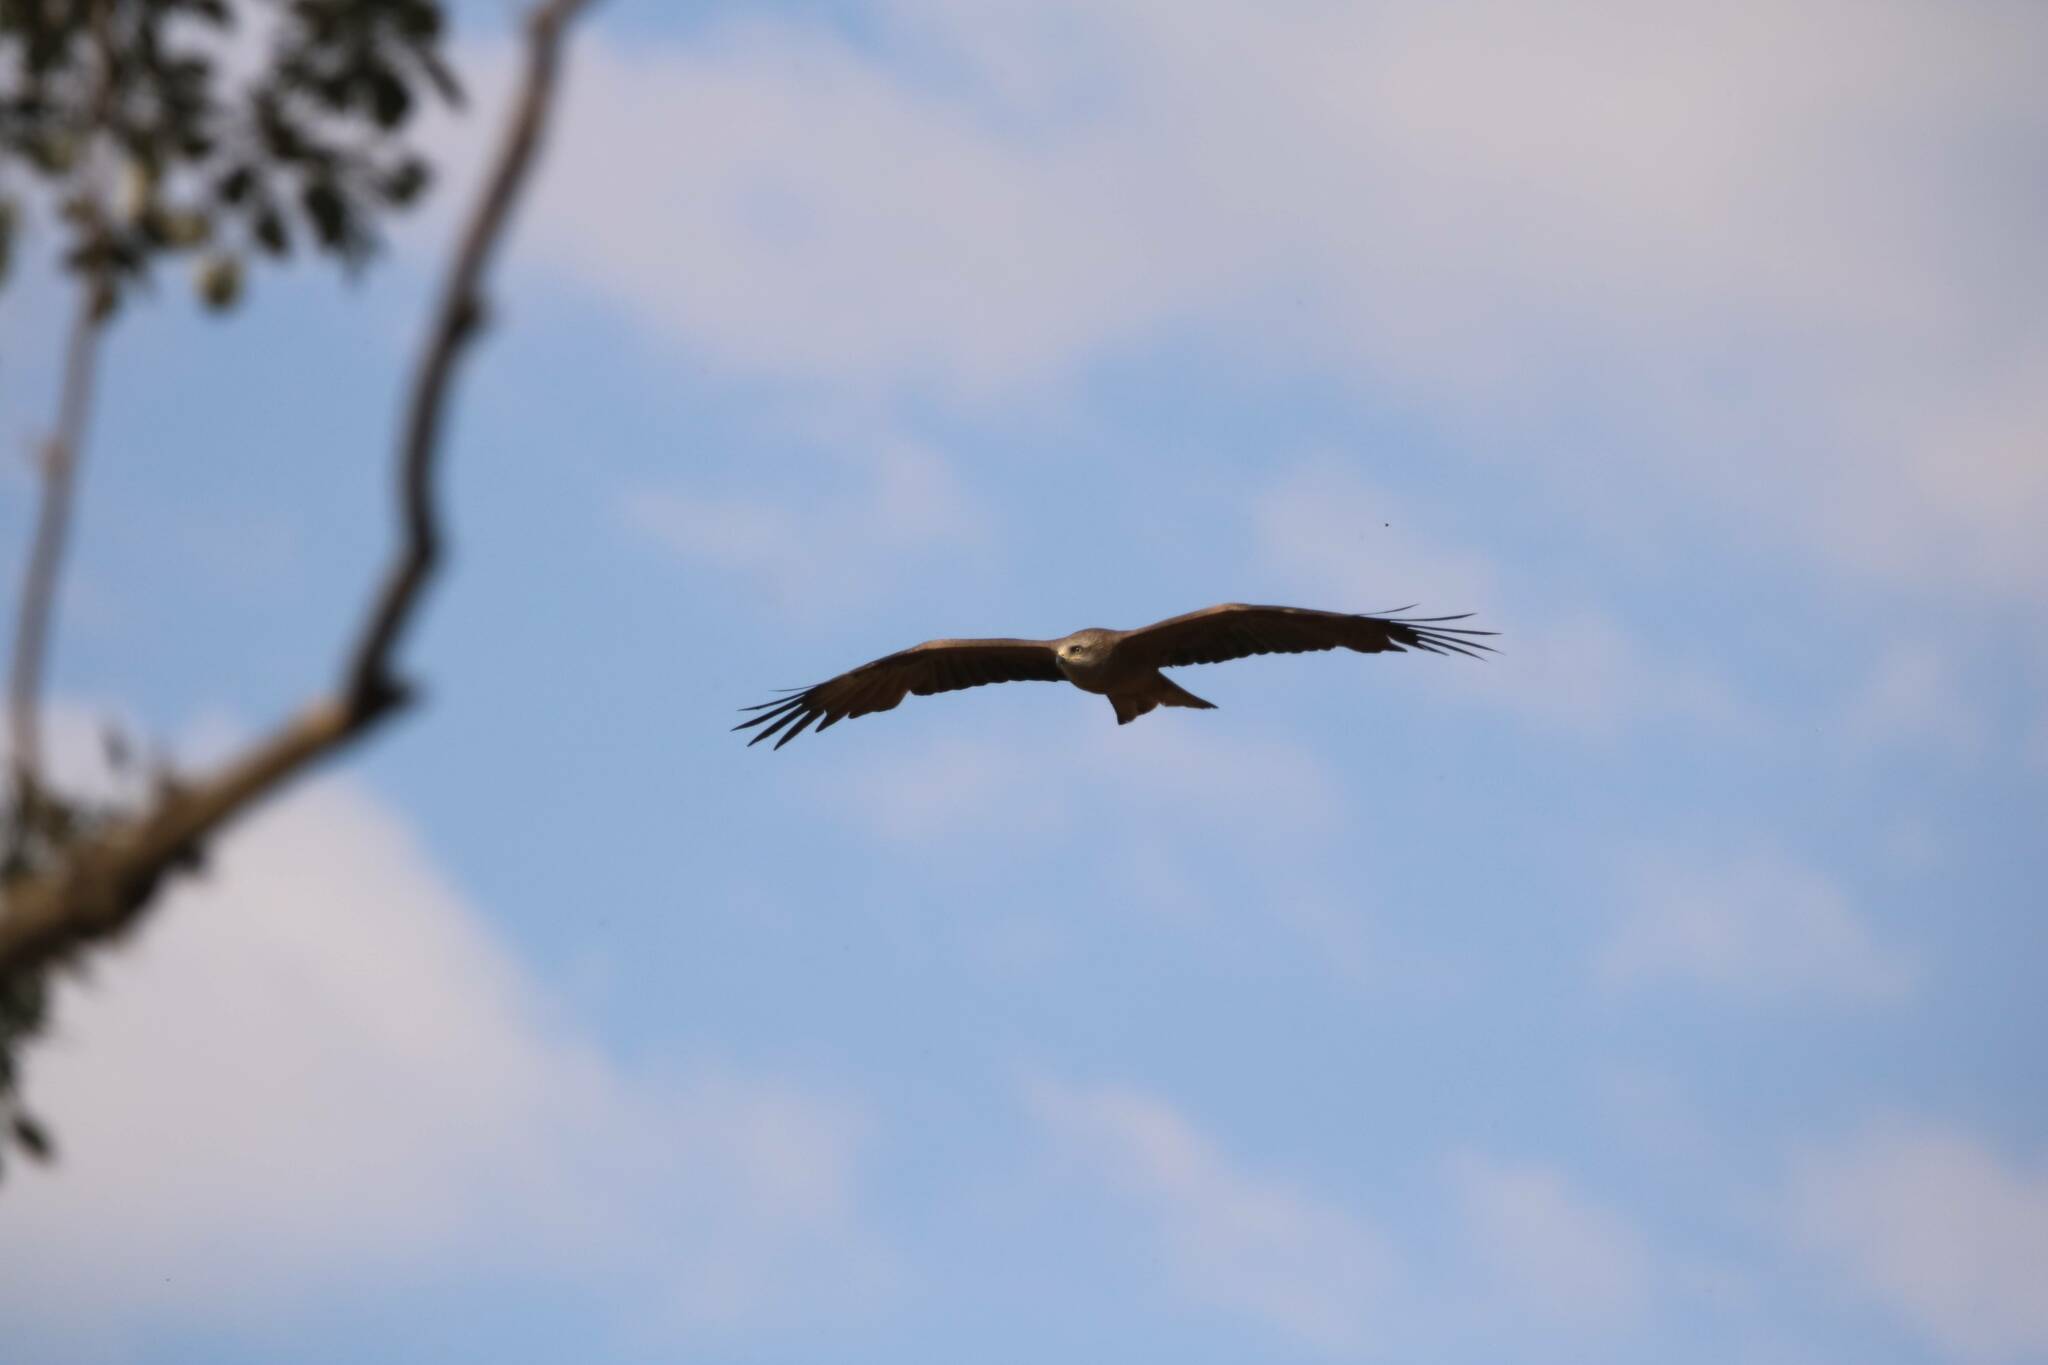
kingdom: Animalia
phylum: Chordata
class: Aves
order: Accipitriformes
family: Accipitridae
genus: Milvus
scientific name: Milvus migrans
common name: Black kite
